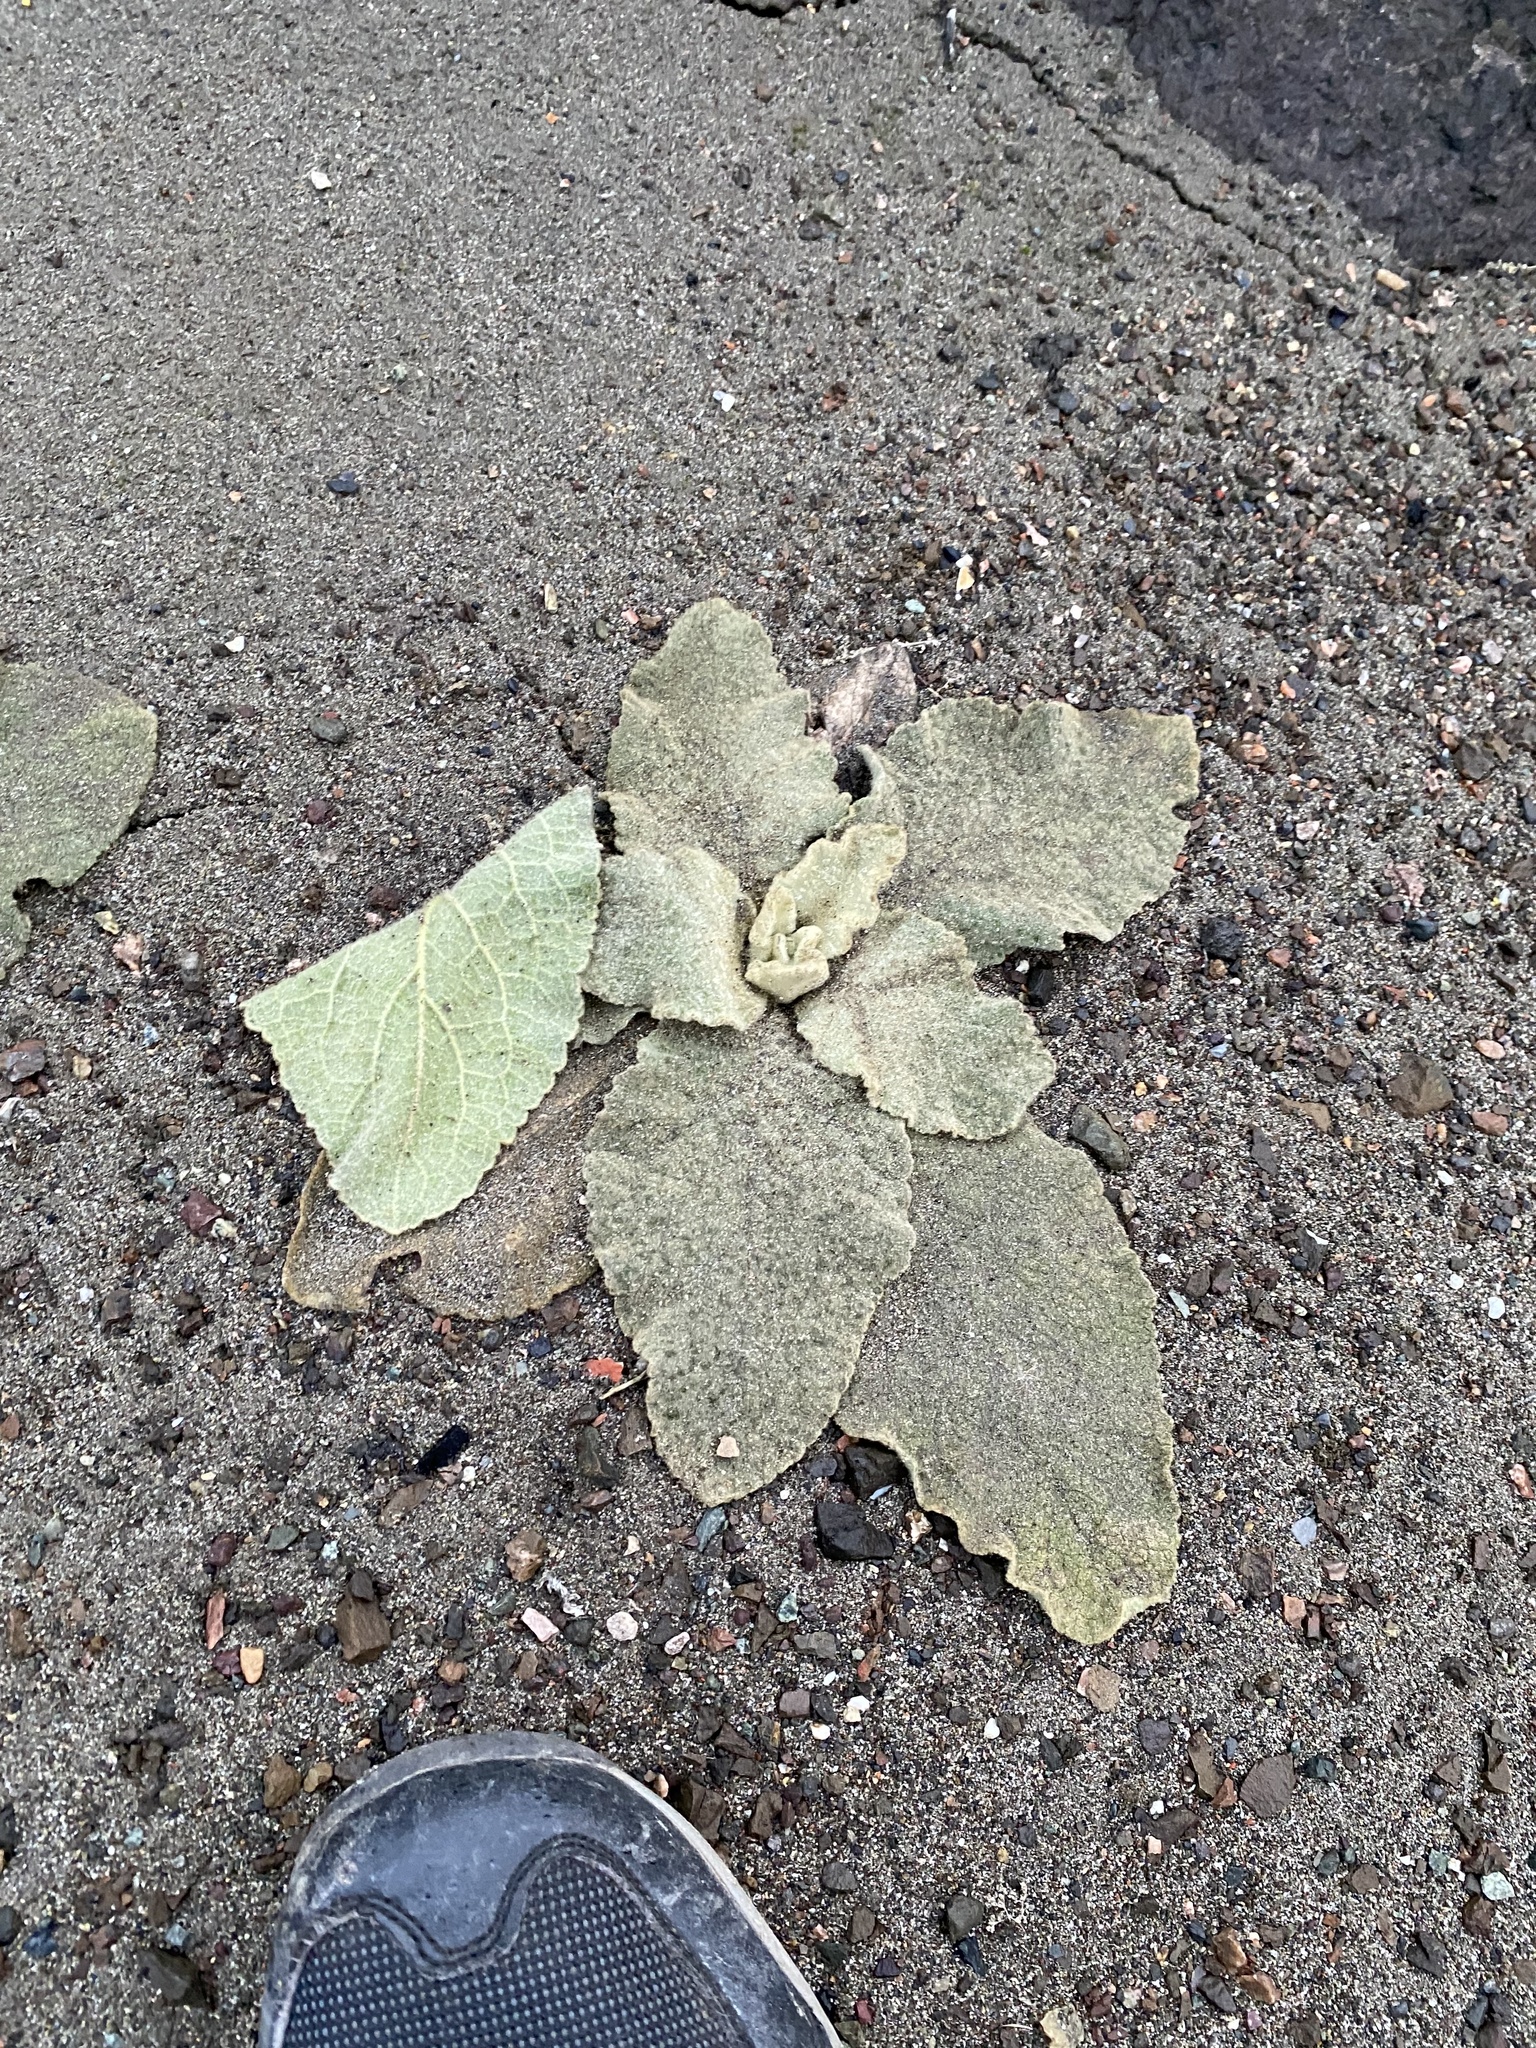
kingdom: Plantae
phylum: Tracheophyta
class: Magnoliopsida
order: Lamiales
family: Scrophulariaceae
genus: Verbascum
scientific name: Verbascum thapsus
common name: Common mullein
